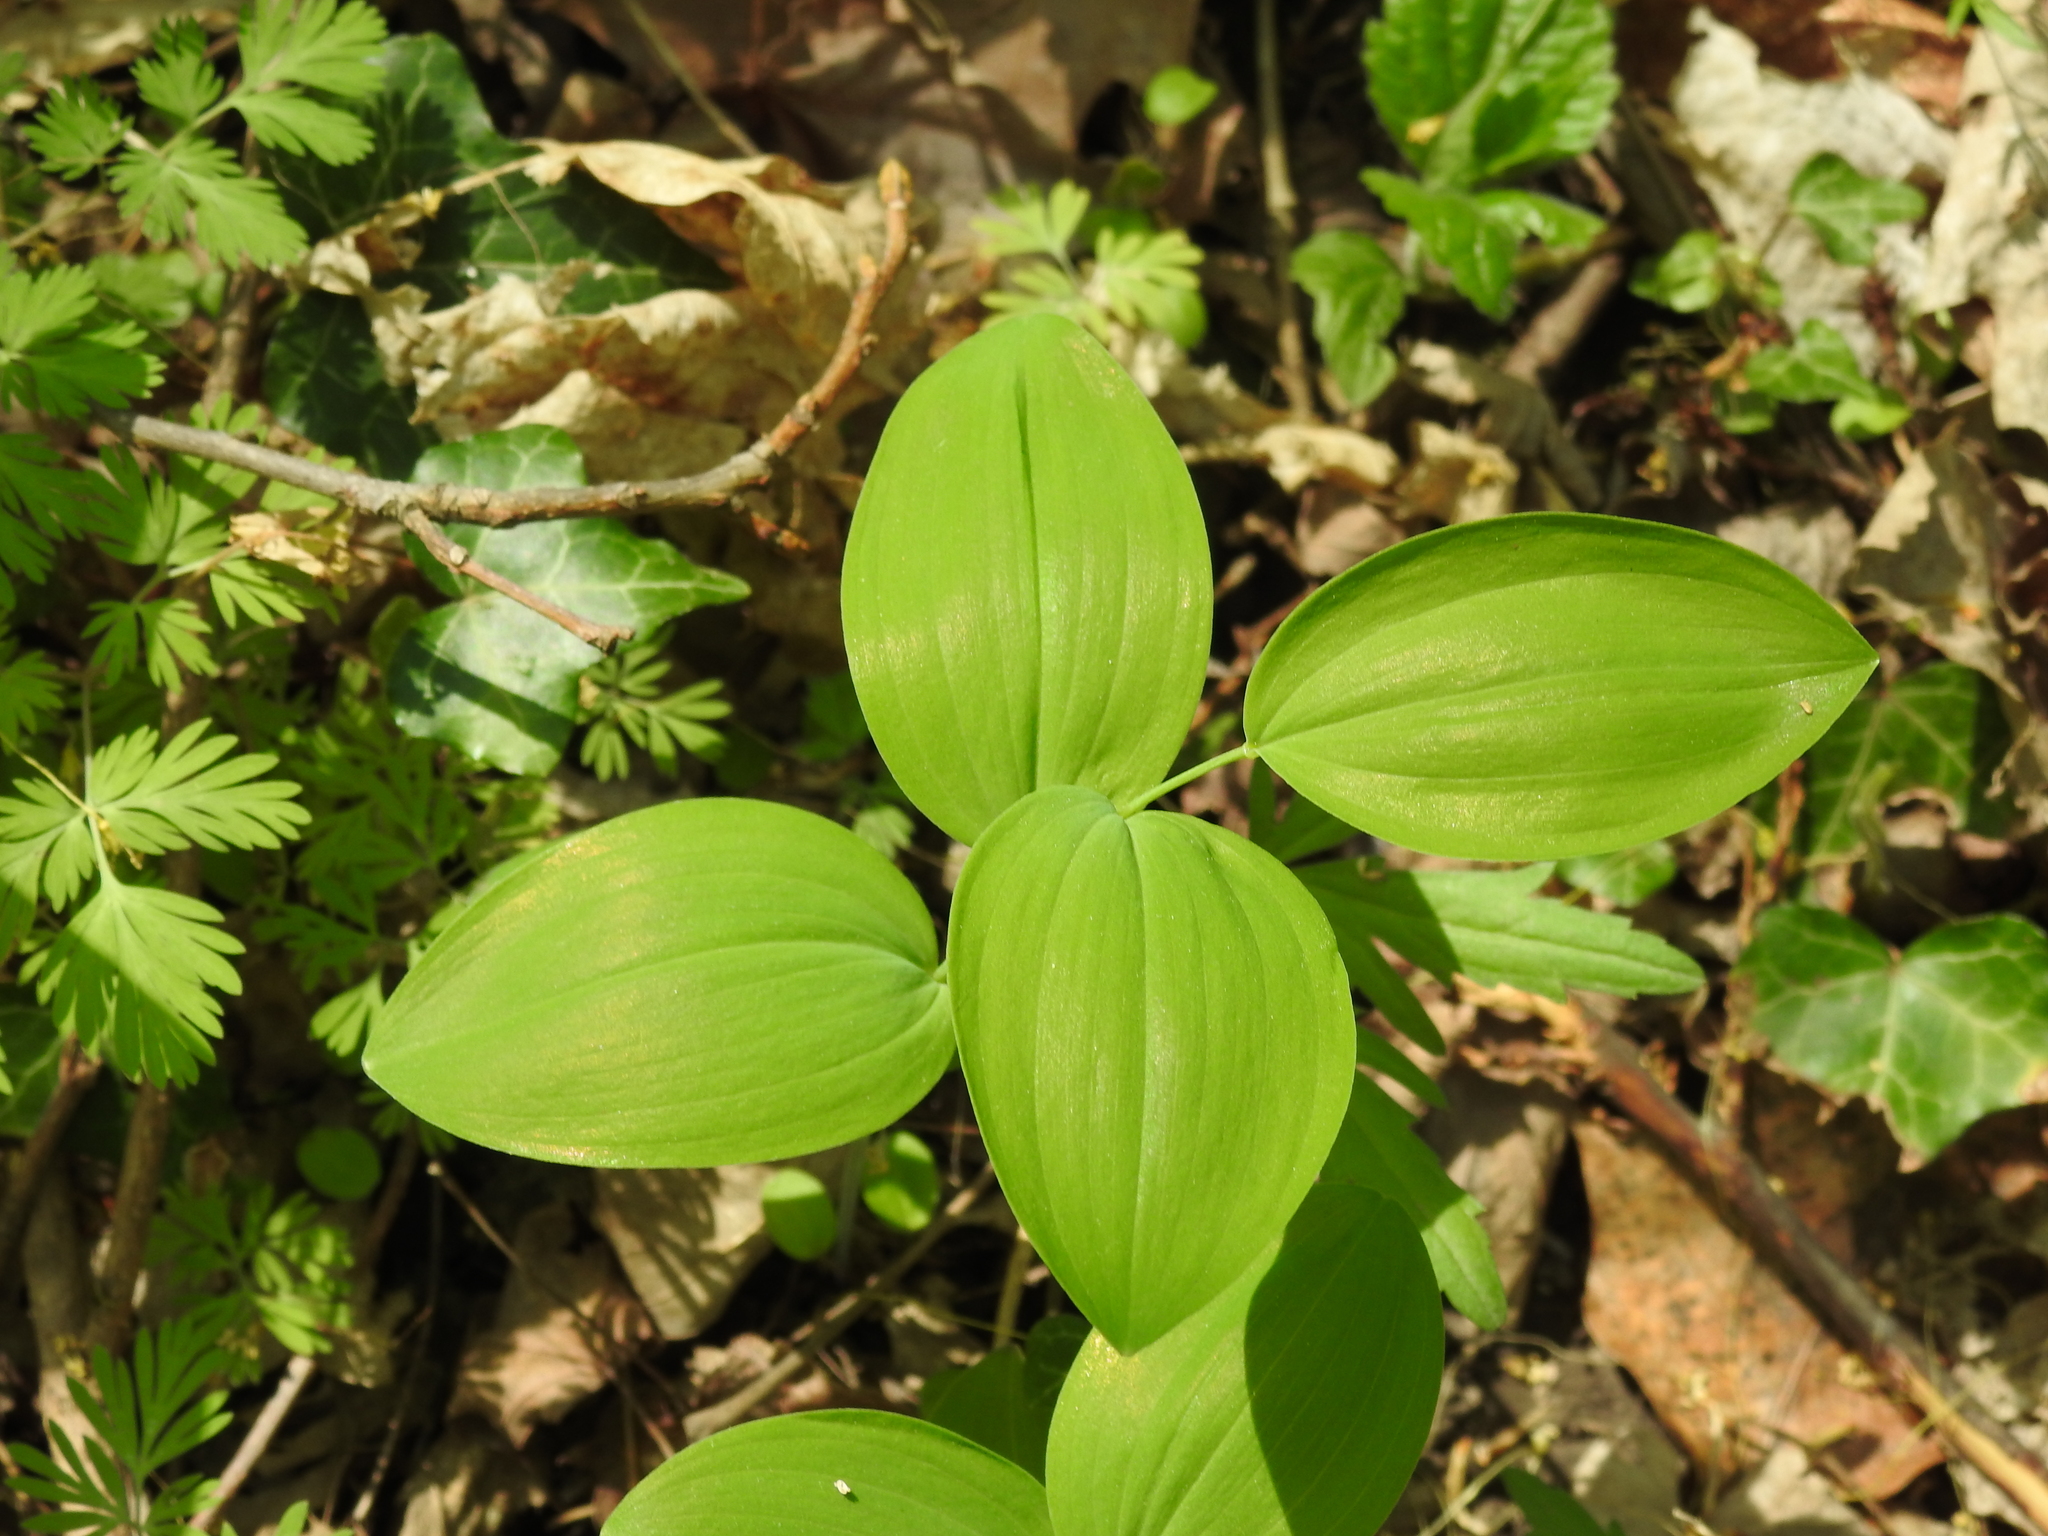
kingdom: Plantae
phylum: Tracheophyta
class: Liliopsida
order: Asparagales
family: Asparagaceae
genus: Polygonatum
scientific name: Polygonatum biflorum
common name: American solomon's-seal
